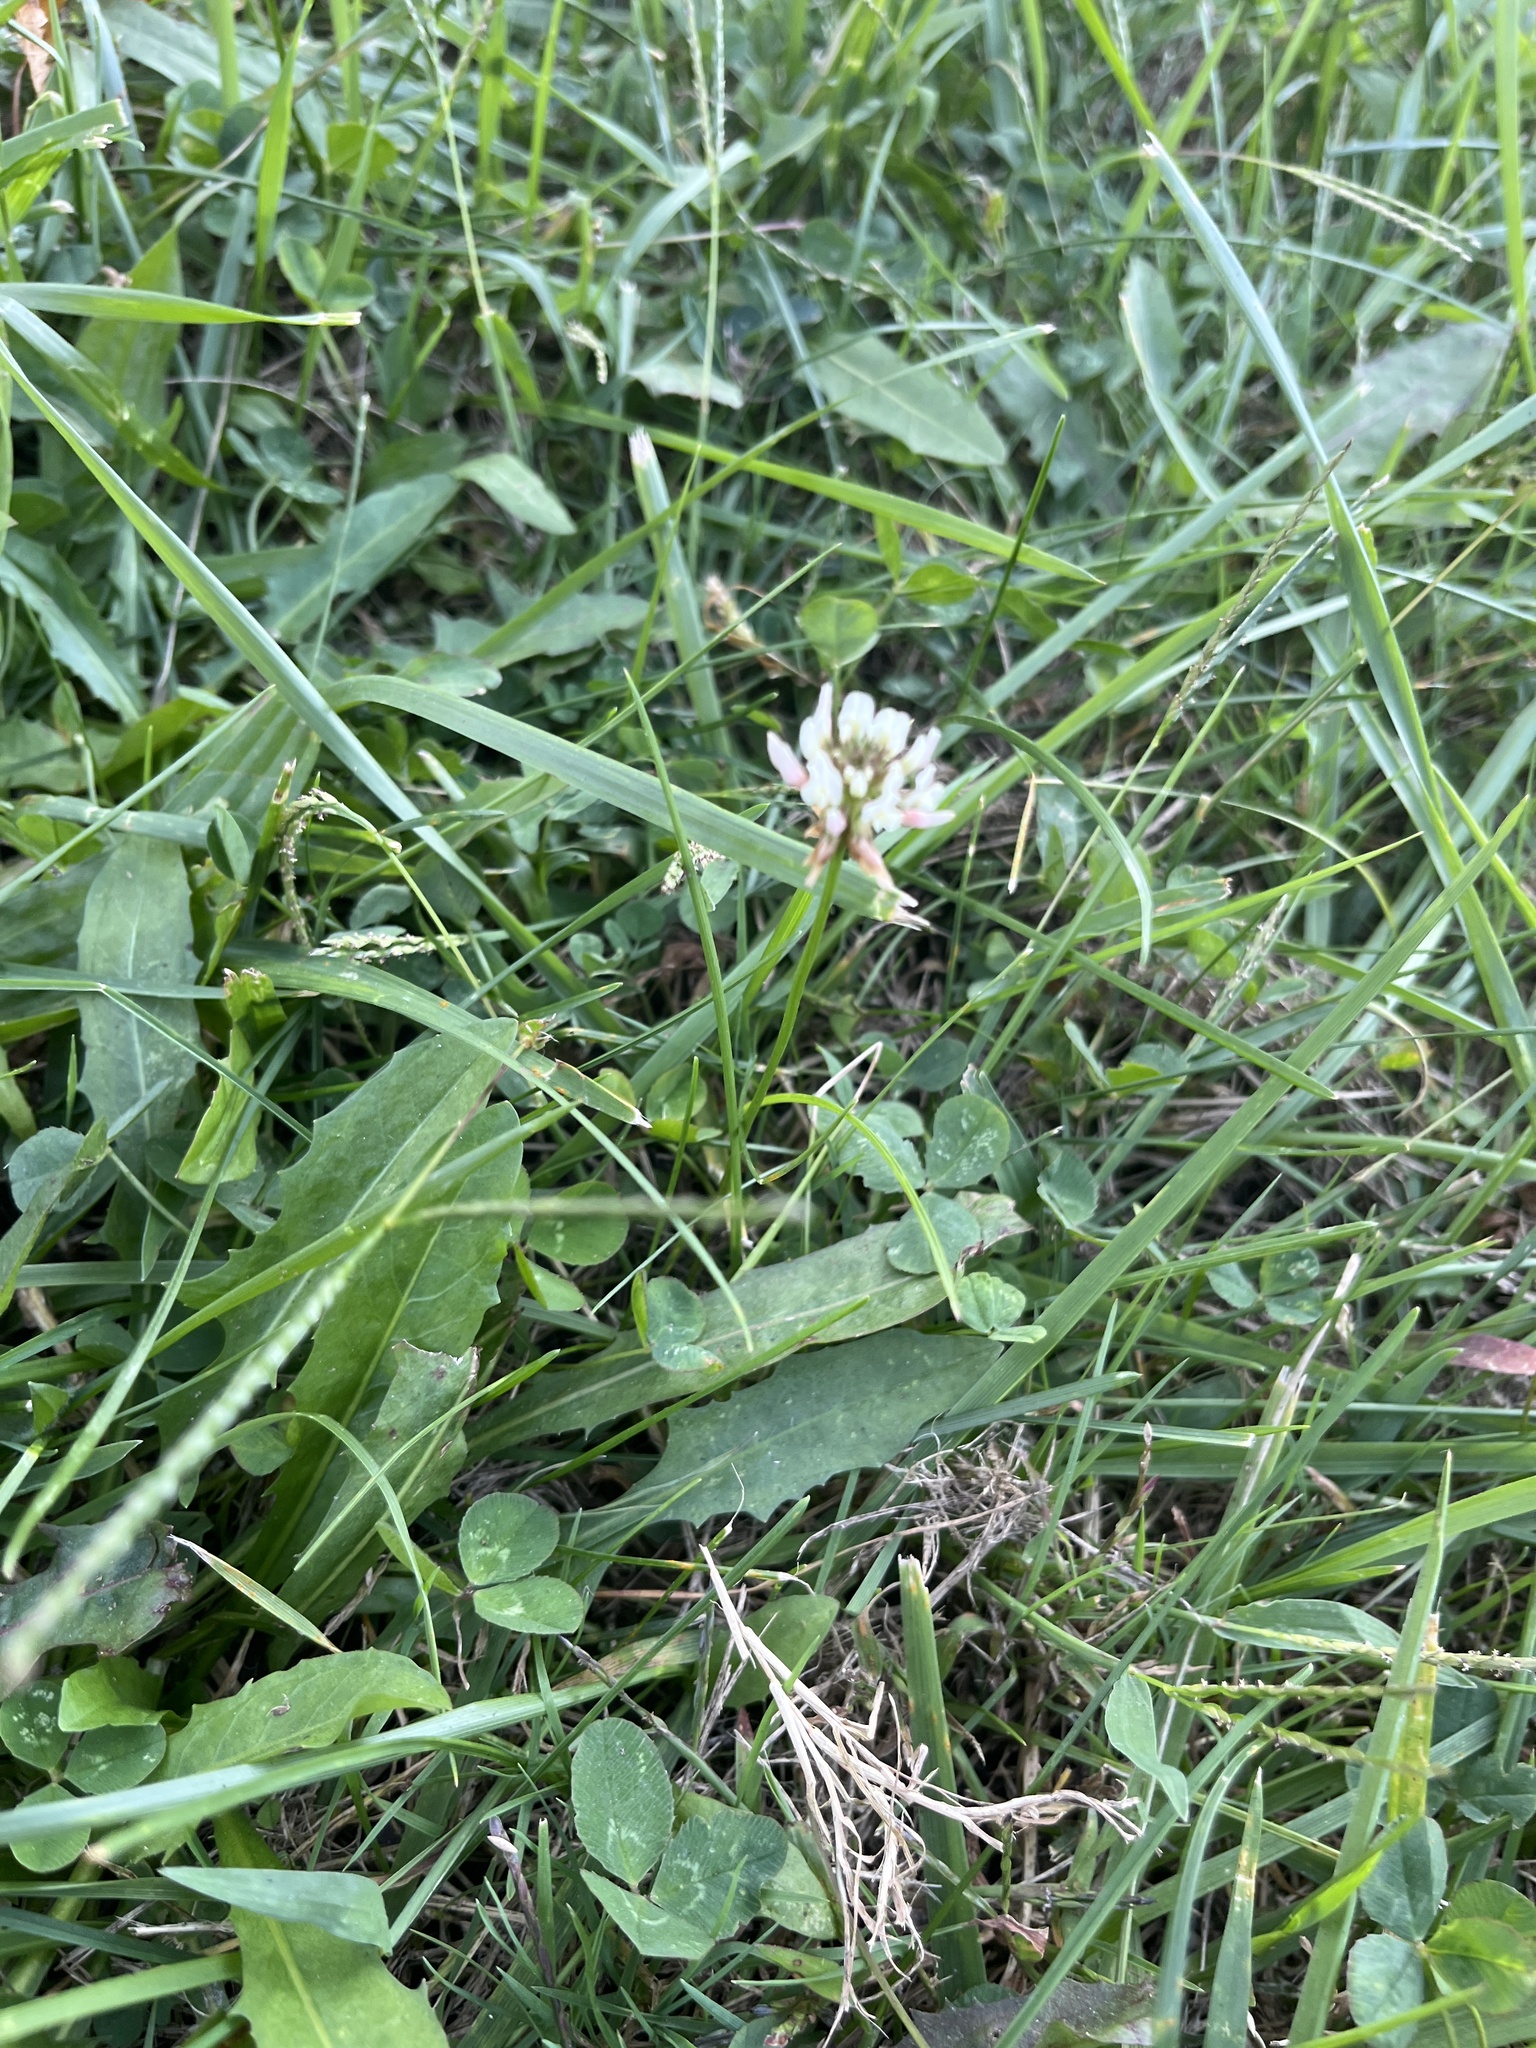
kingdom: Plantae
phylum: Tracheophyta
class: Magnoliopsida
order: Fabales
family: Fabaceae
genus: Trifolium
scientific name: Trifolium repens
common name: White clover
